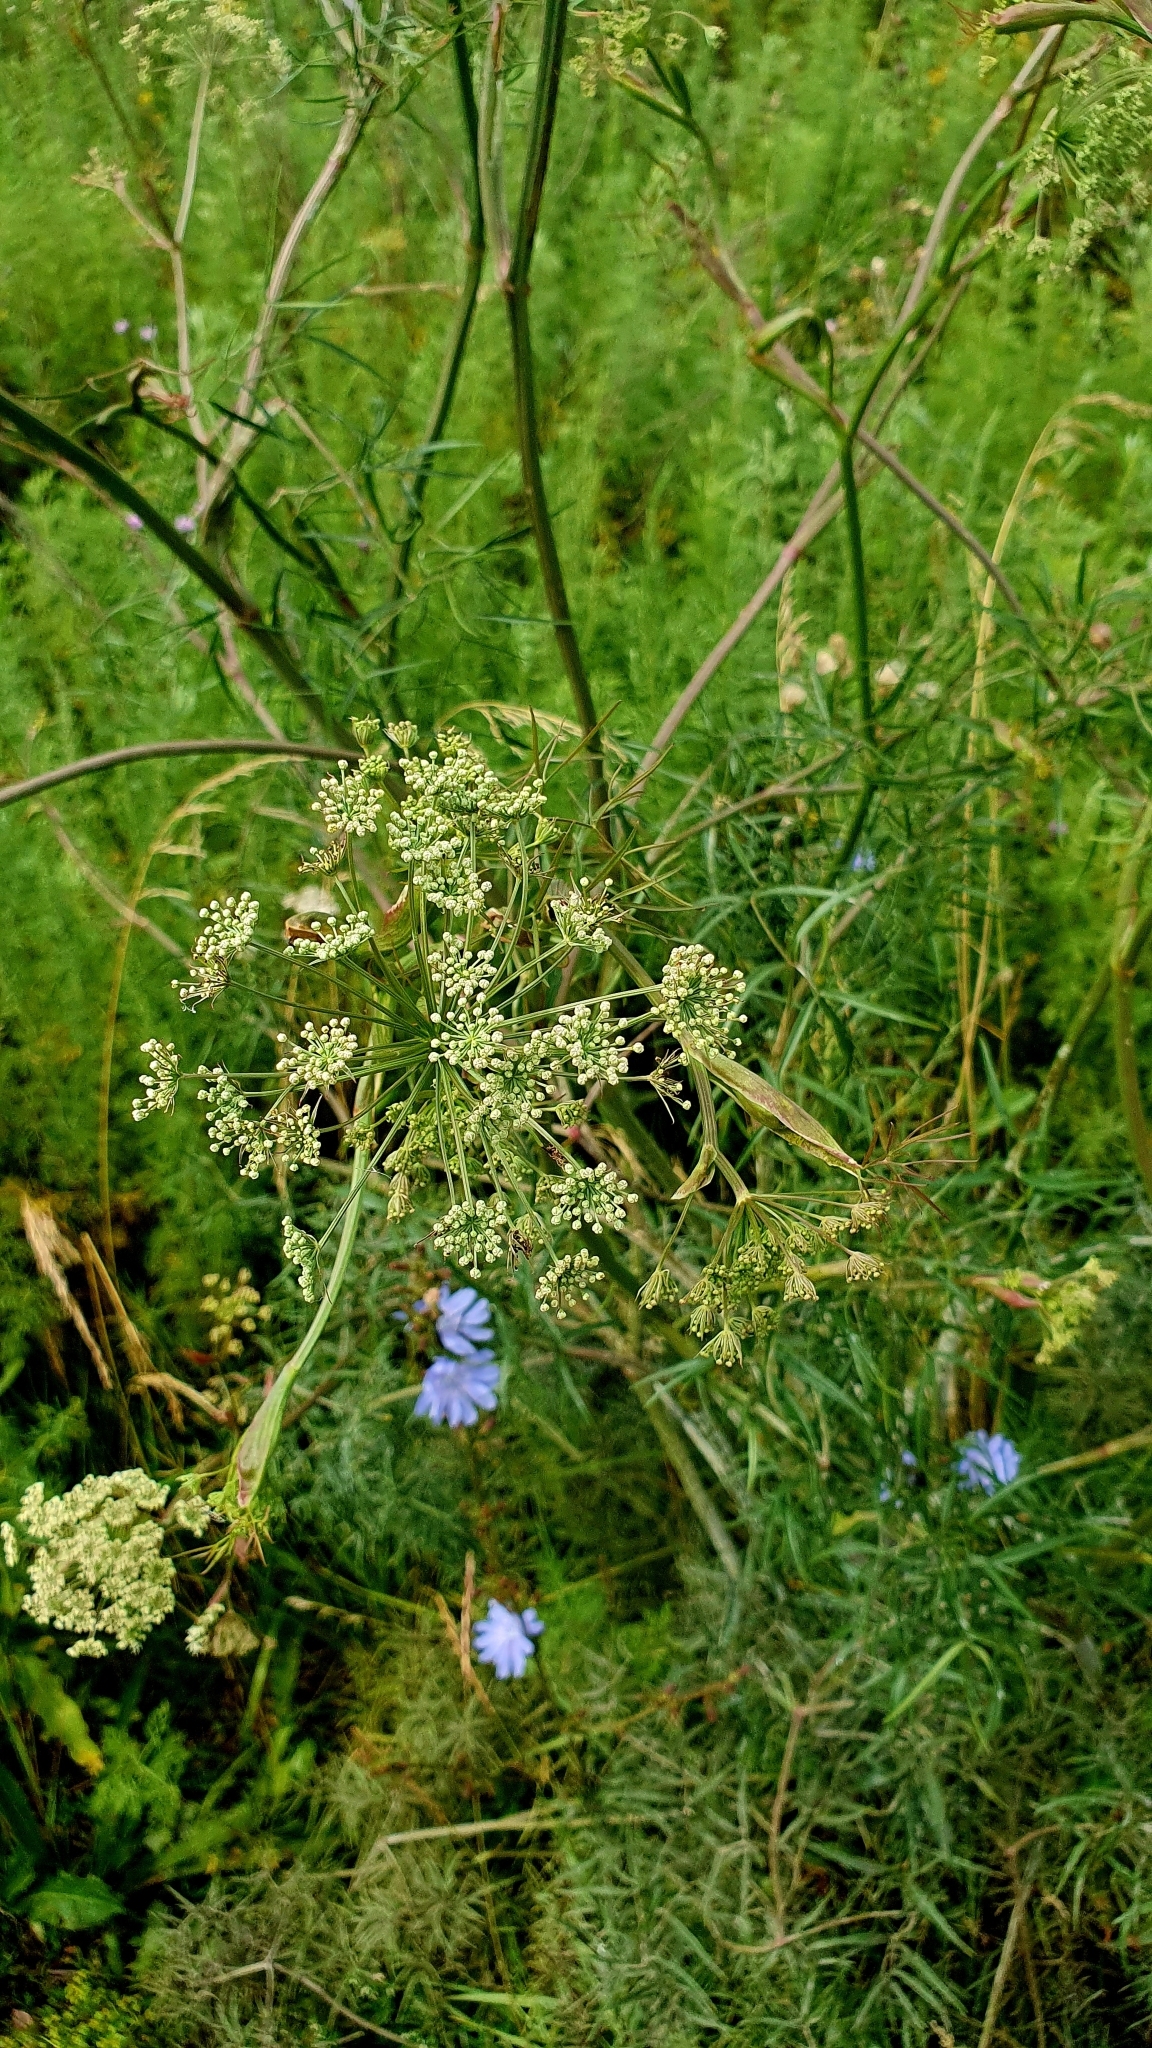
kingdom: Plantae
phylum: Tracheophyta
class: Magnoliopsida
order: Apiales
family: Apiaceae
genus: Cenolophium
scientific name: Cenolophium fischeri
